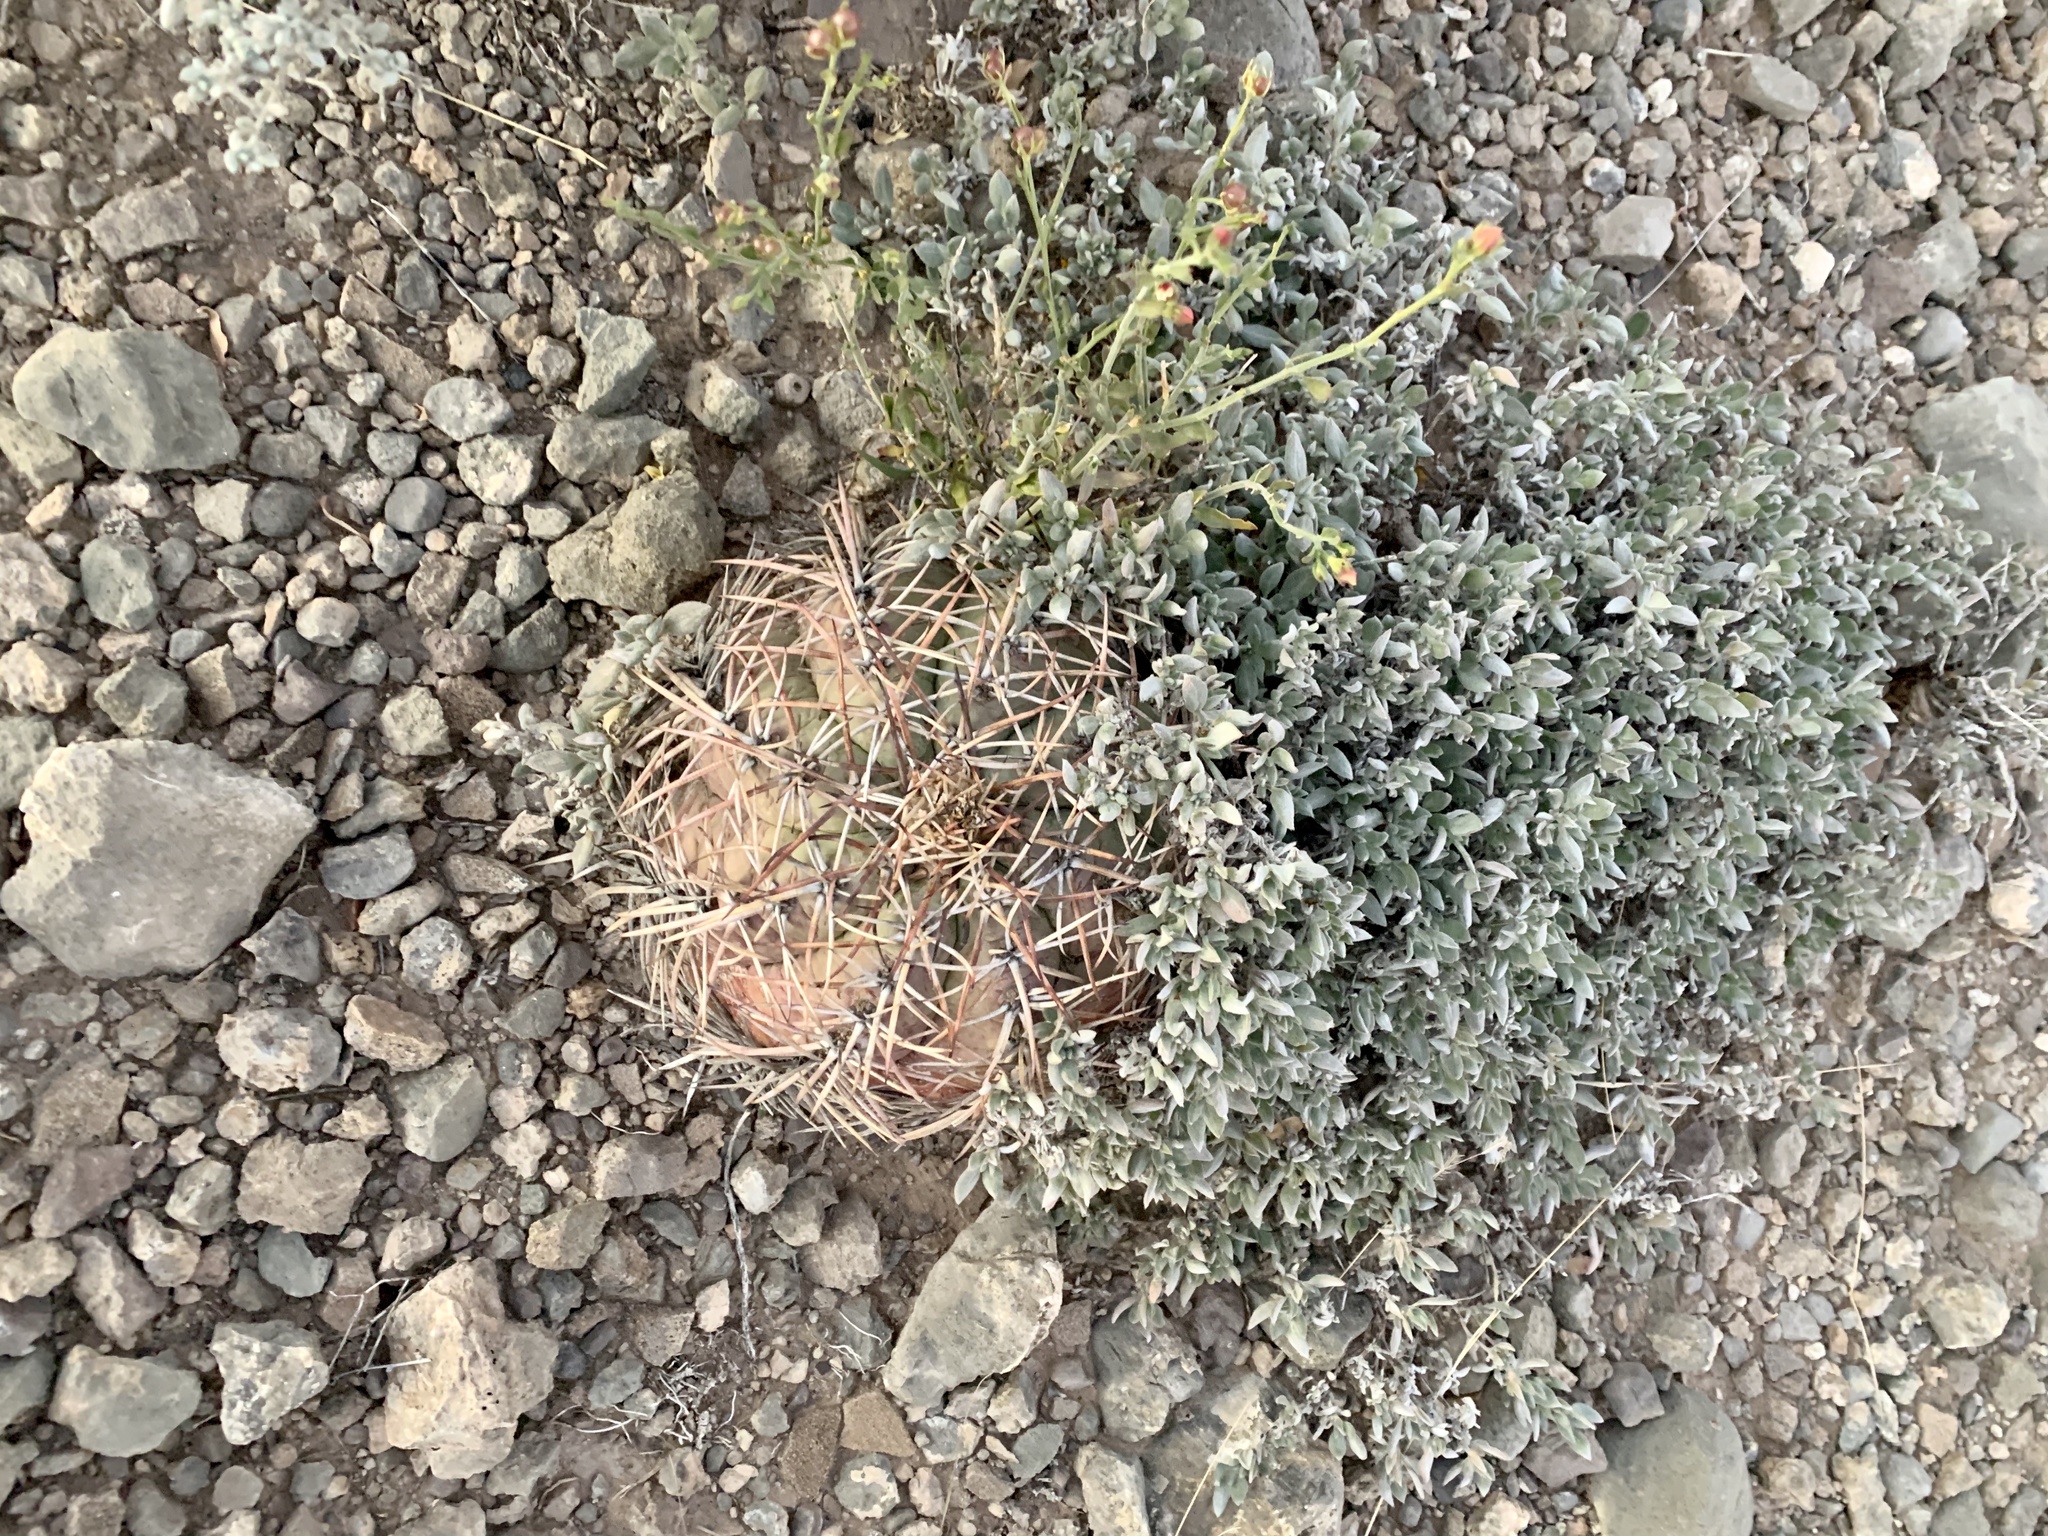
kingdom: Plantae
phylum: Tracheophyta
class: Magnoliopsida
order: Caryophyllales
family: Cactaceae
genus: Echinocactus
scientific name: Echinocactus horizonthalonius
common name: Devilshead
